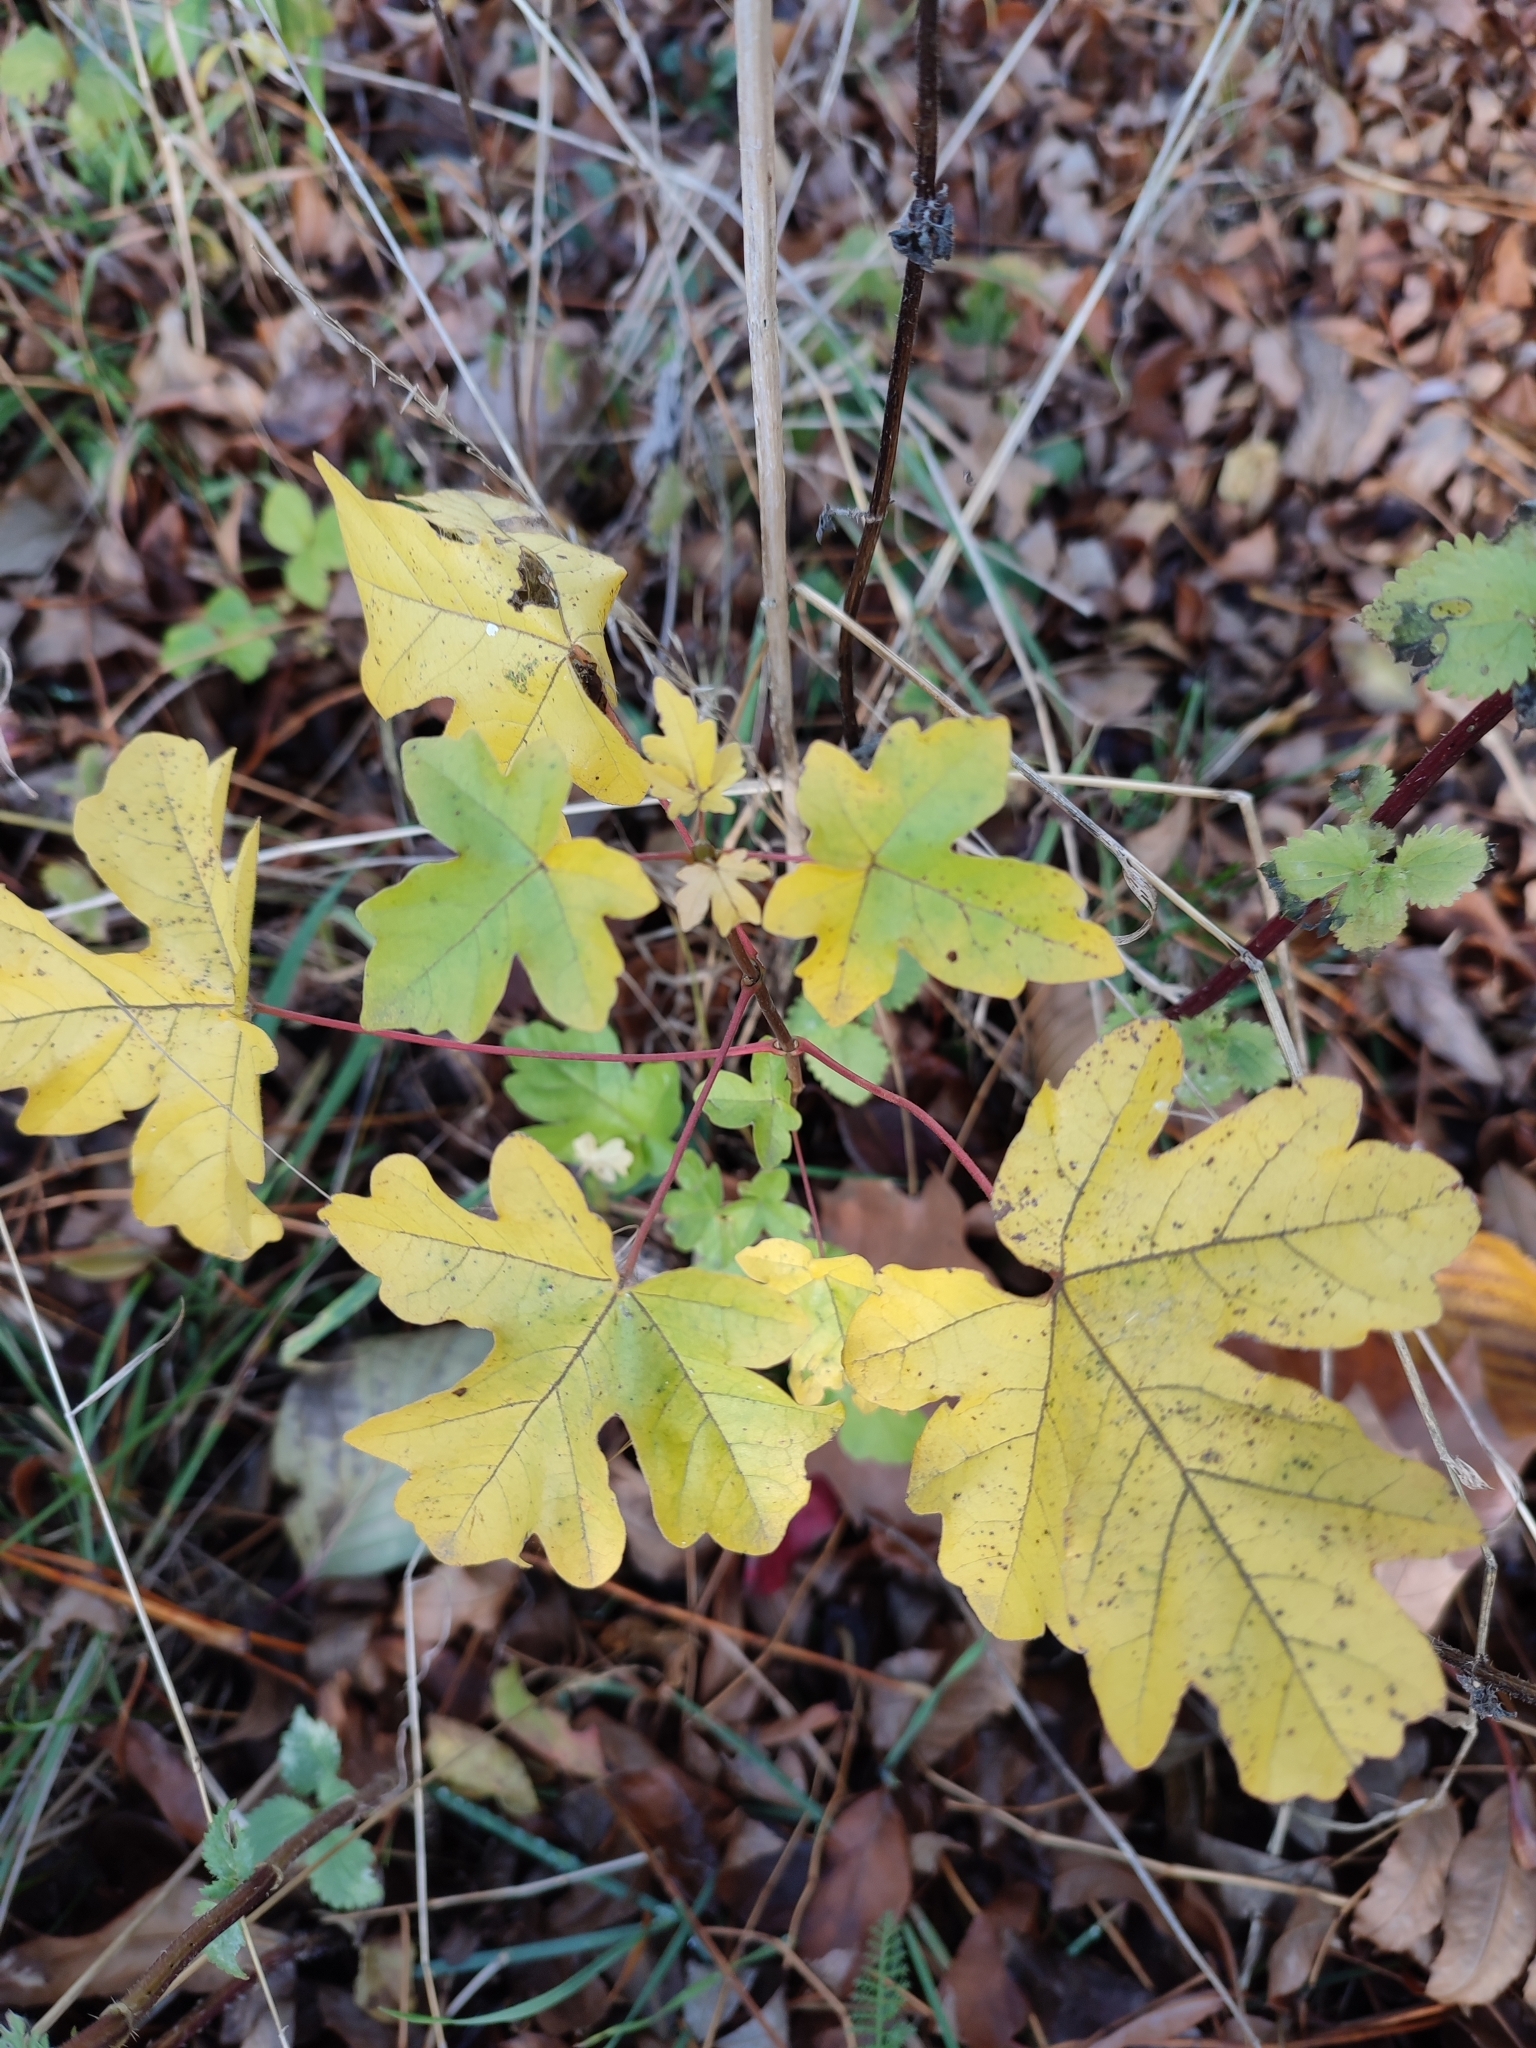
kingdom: Plantae
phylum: Tracheophyta
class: Magnoliopsida
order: Sapindales
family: Sapindaceae
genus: Acer
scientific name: Acer campestre
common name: Field maple
